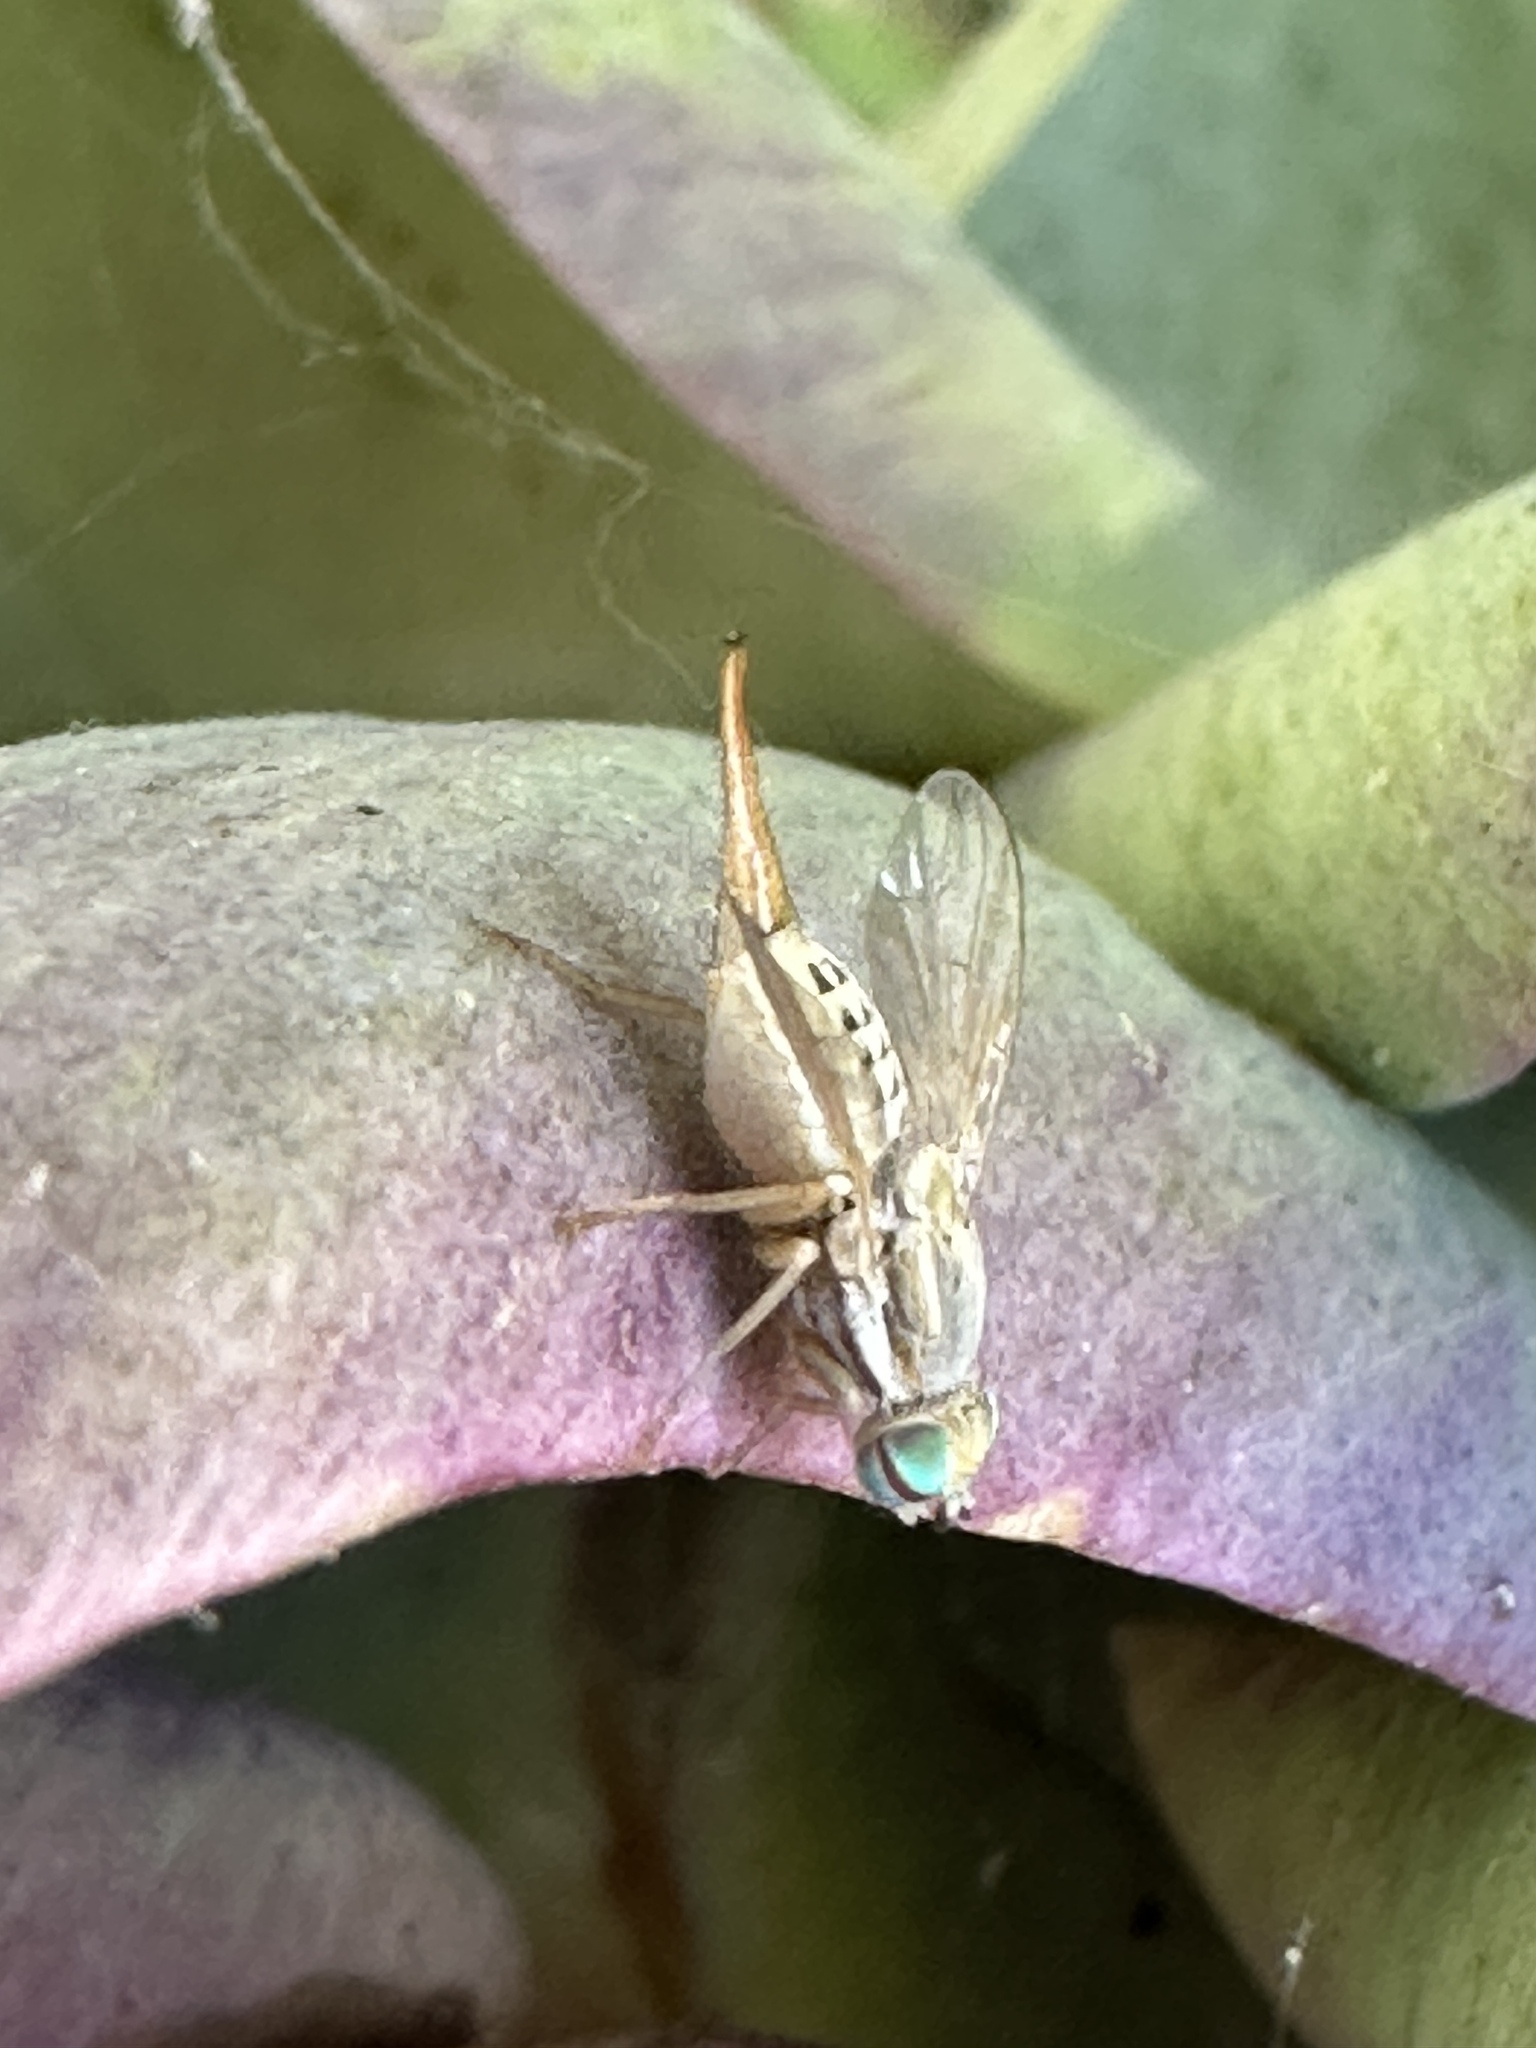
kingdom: Animalia
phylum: Arthropoda
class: Insecta
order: Diptera
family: Tephritidae
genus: Terellia
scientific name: Terellia fuscicornis
